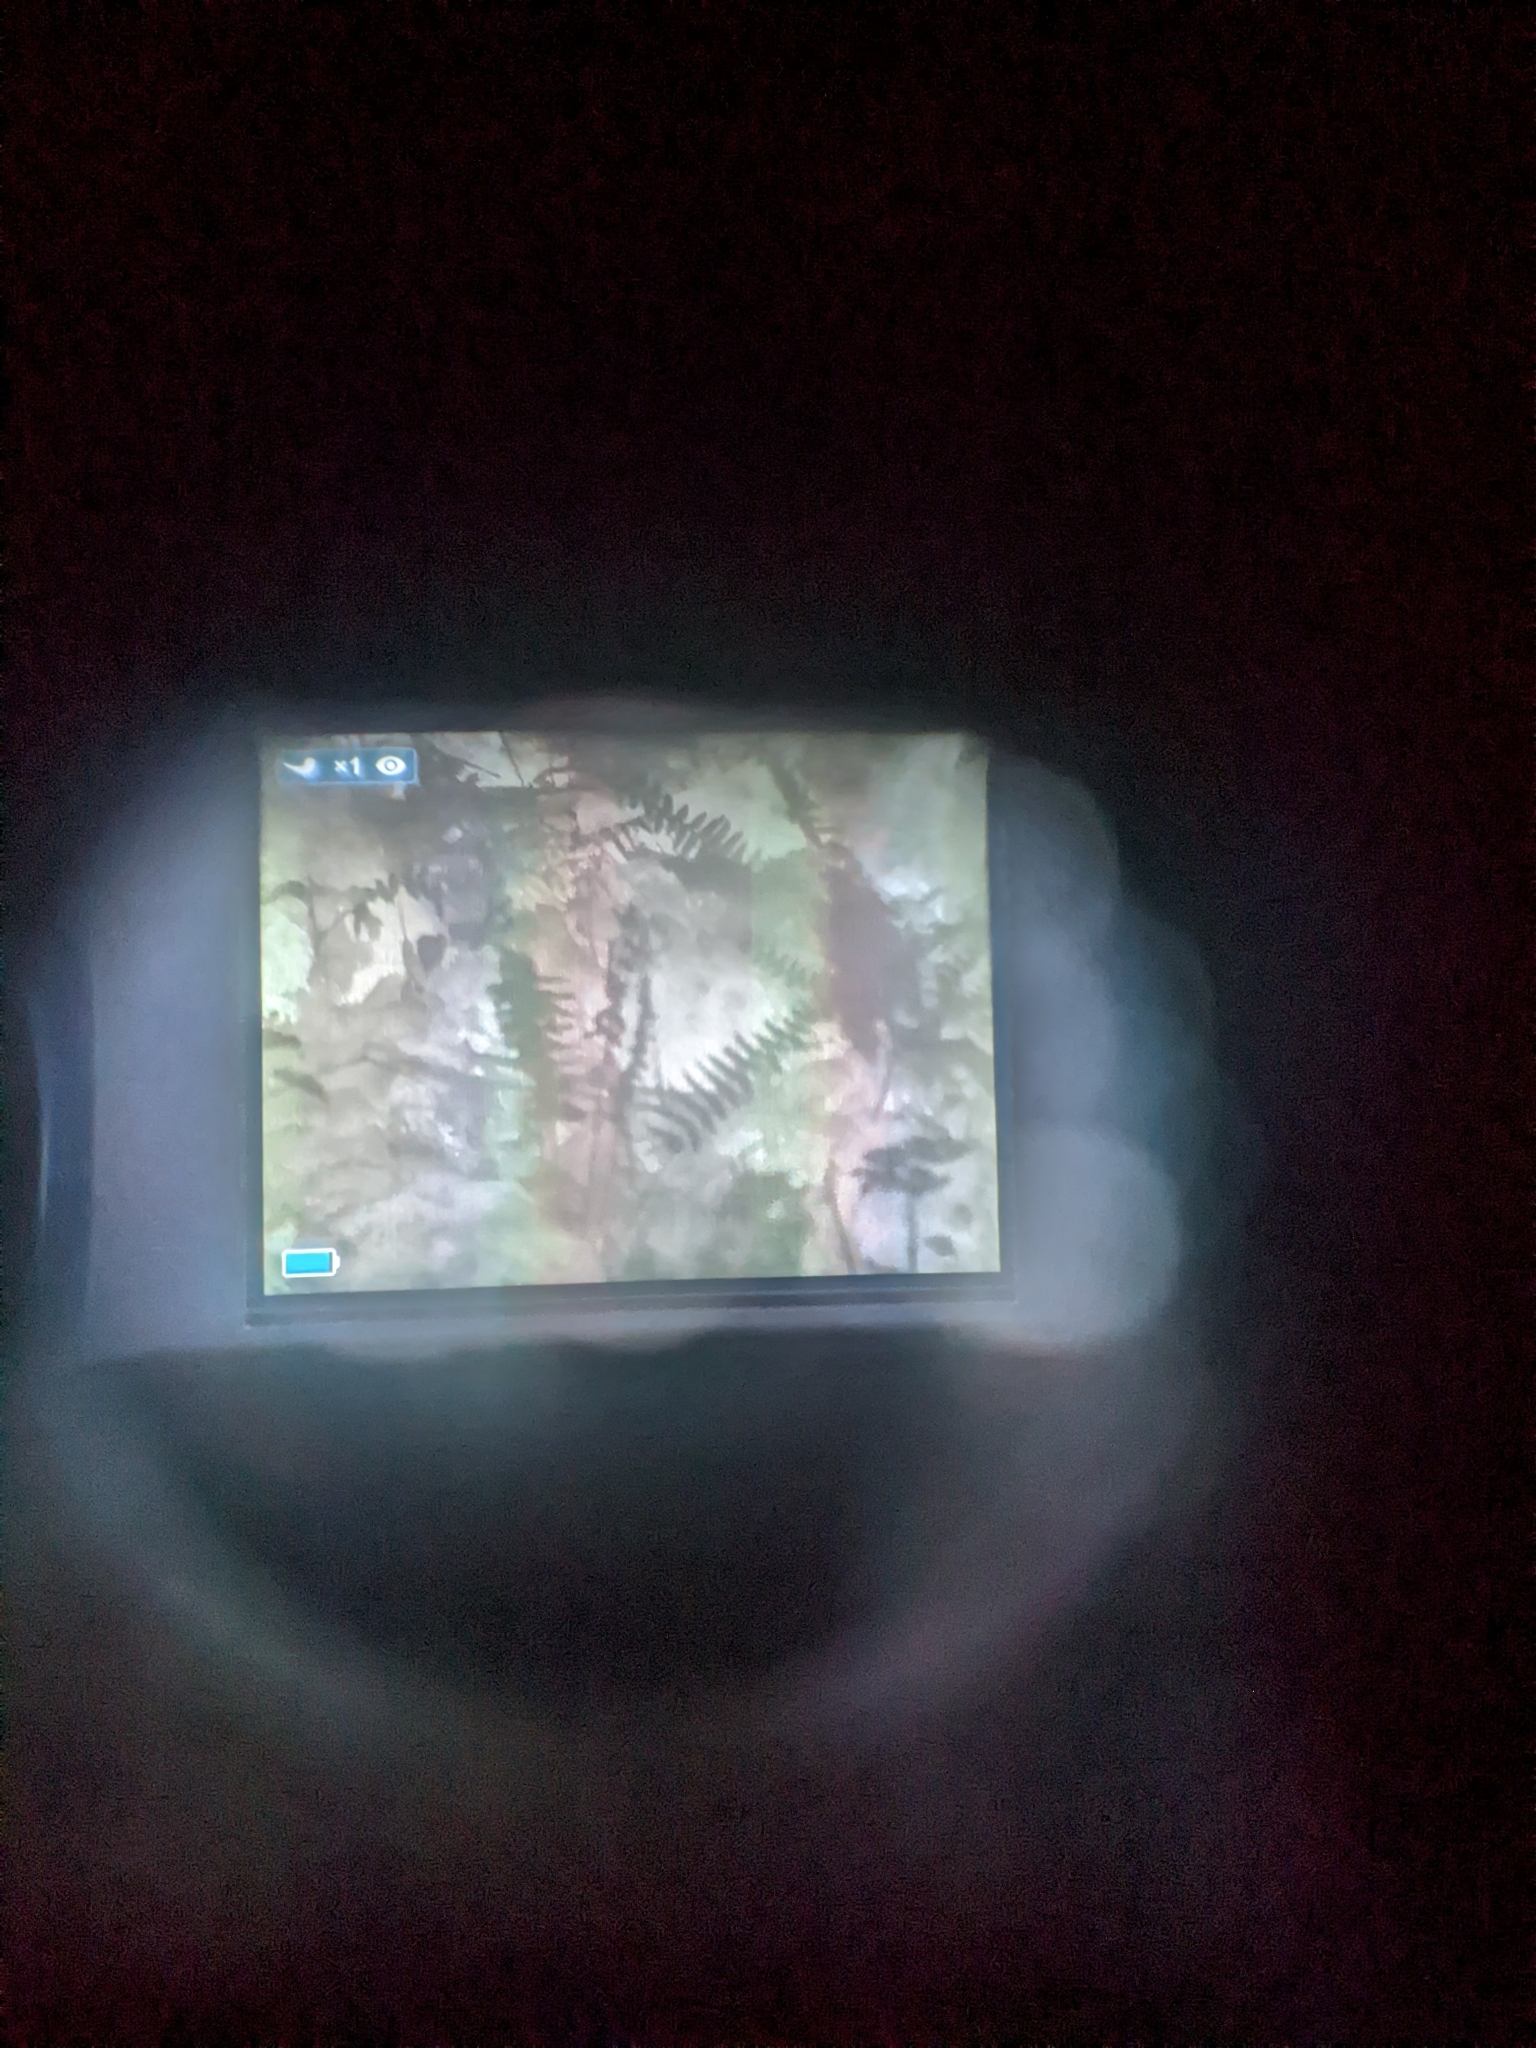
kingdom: Plantae
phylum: Tracheophyta
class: Polypodiopsida
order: Polypodiales
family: Dryopteridaceae
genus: Polystichum
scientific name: Polystichum acrostichoides
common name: Christmas fern
